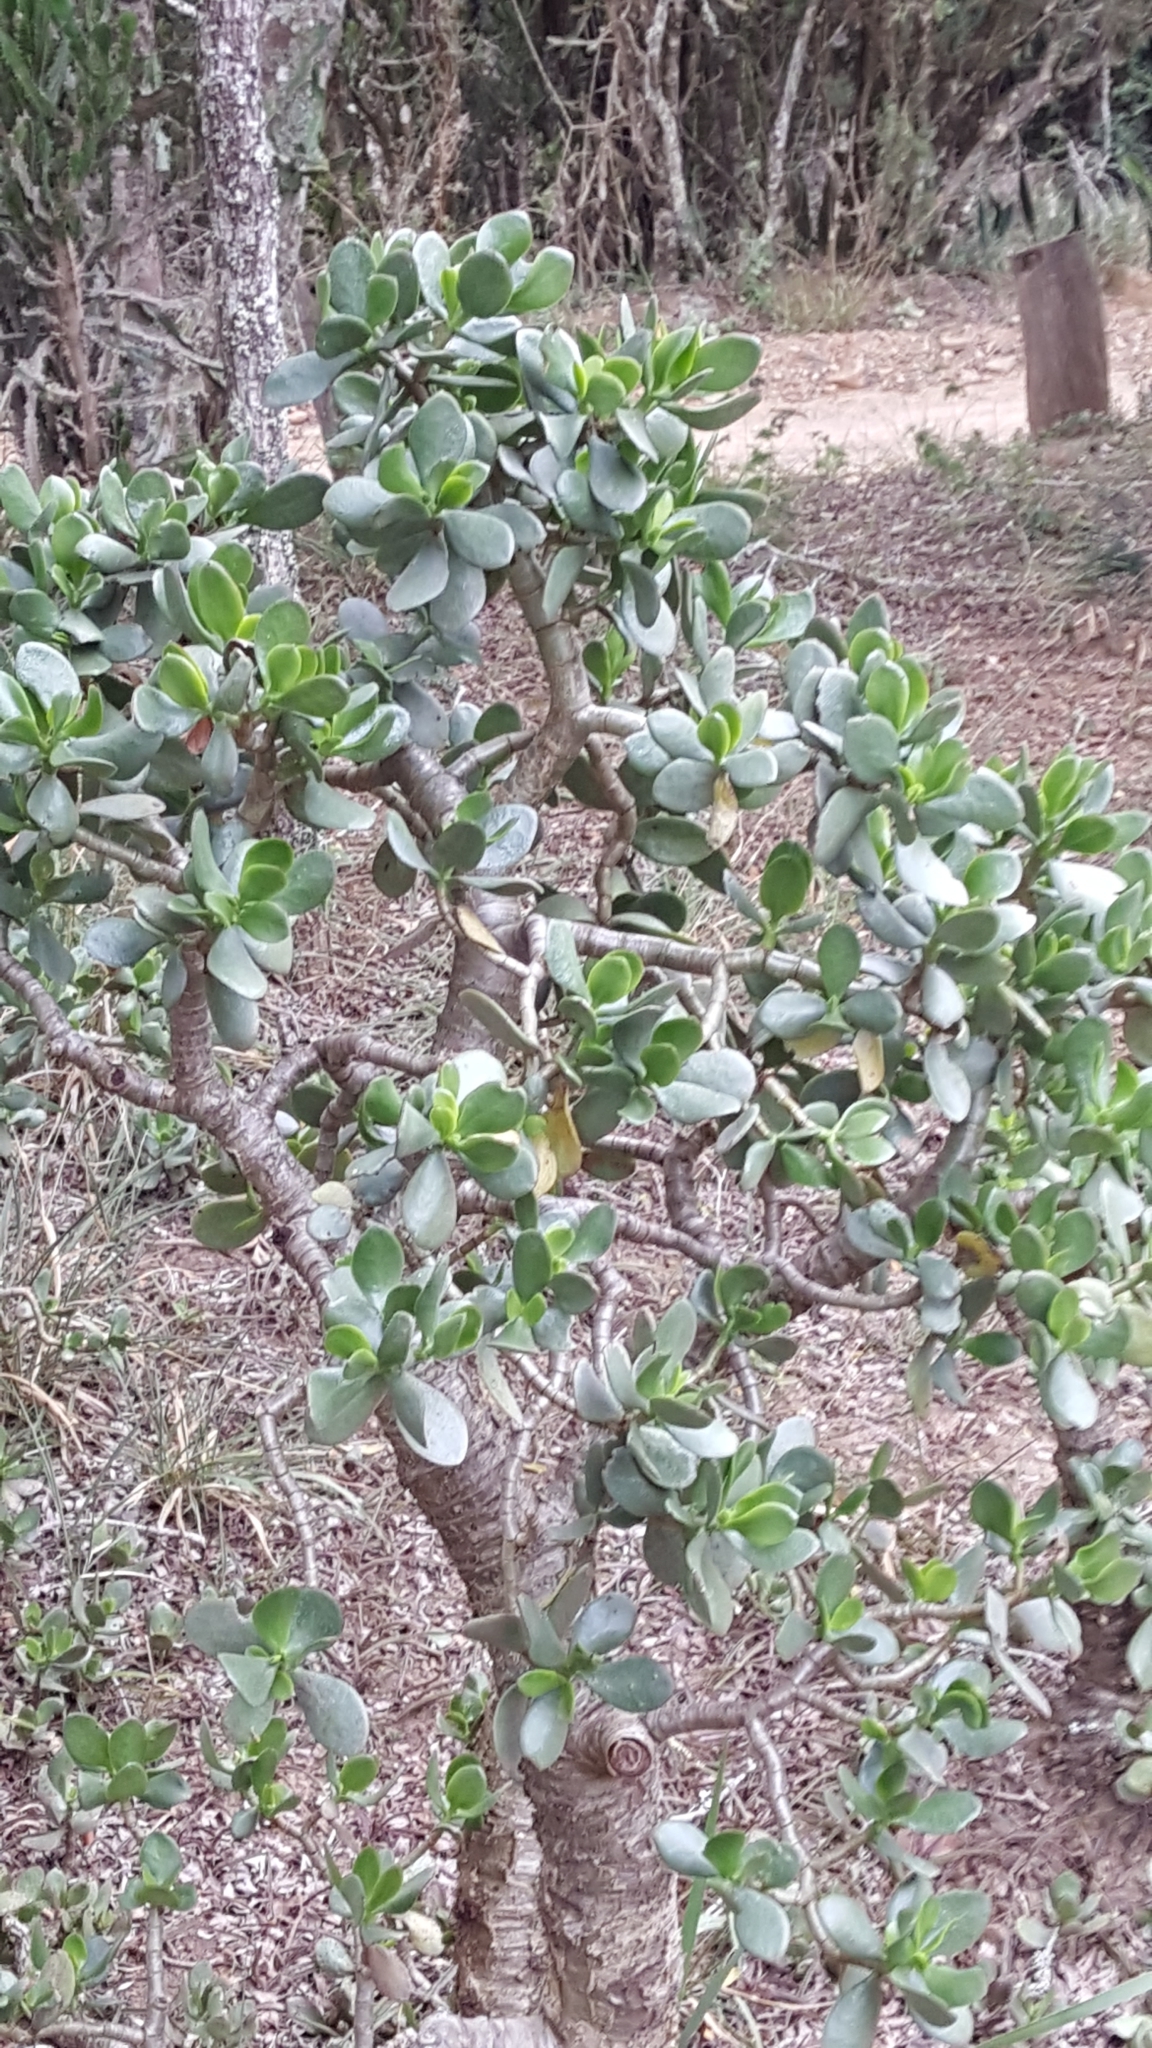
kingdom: Plantae
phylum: Tracheophyta
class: Magnoliopsida
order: Saxifragales
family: Crassulaceae
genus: Crassula
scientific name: Crassula ovata
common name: Jade plant
